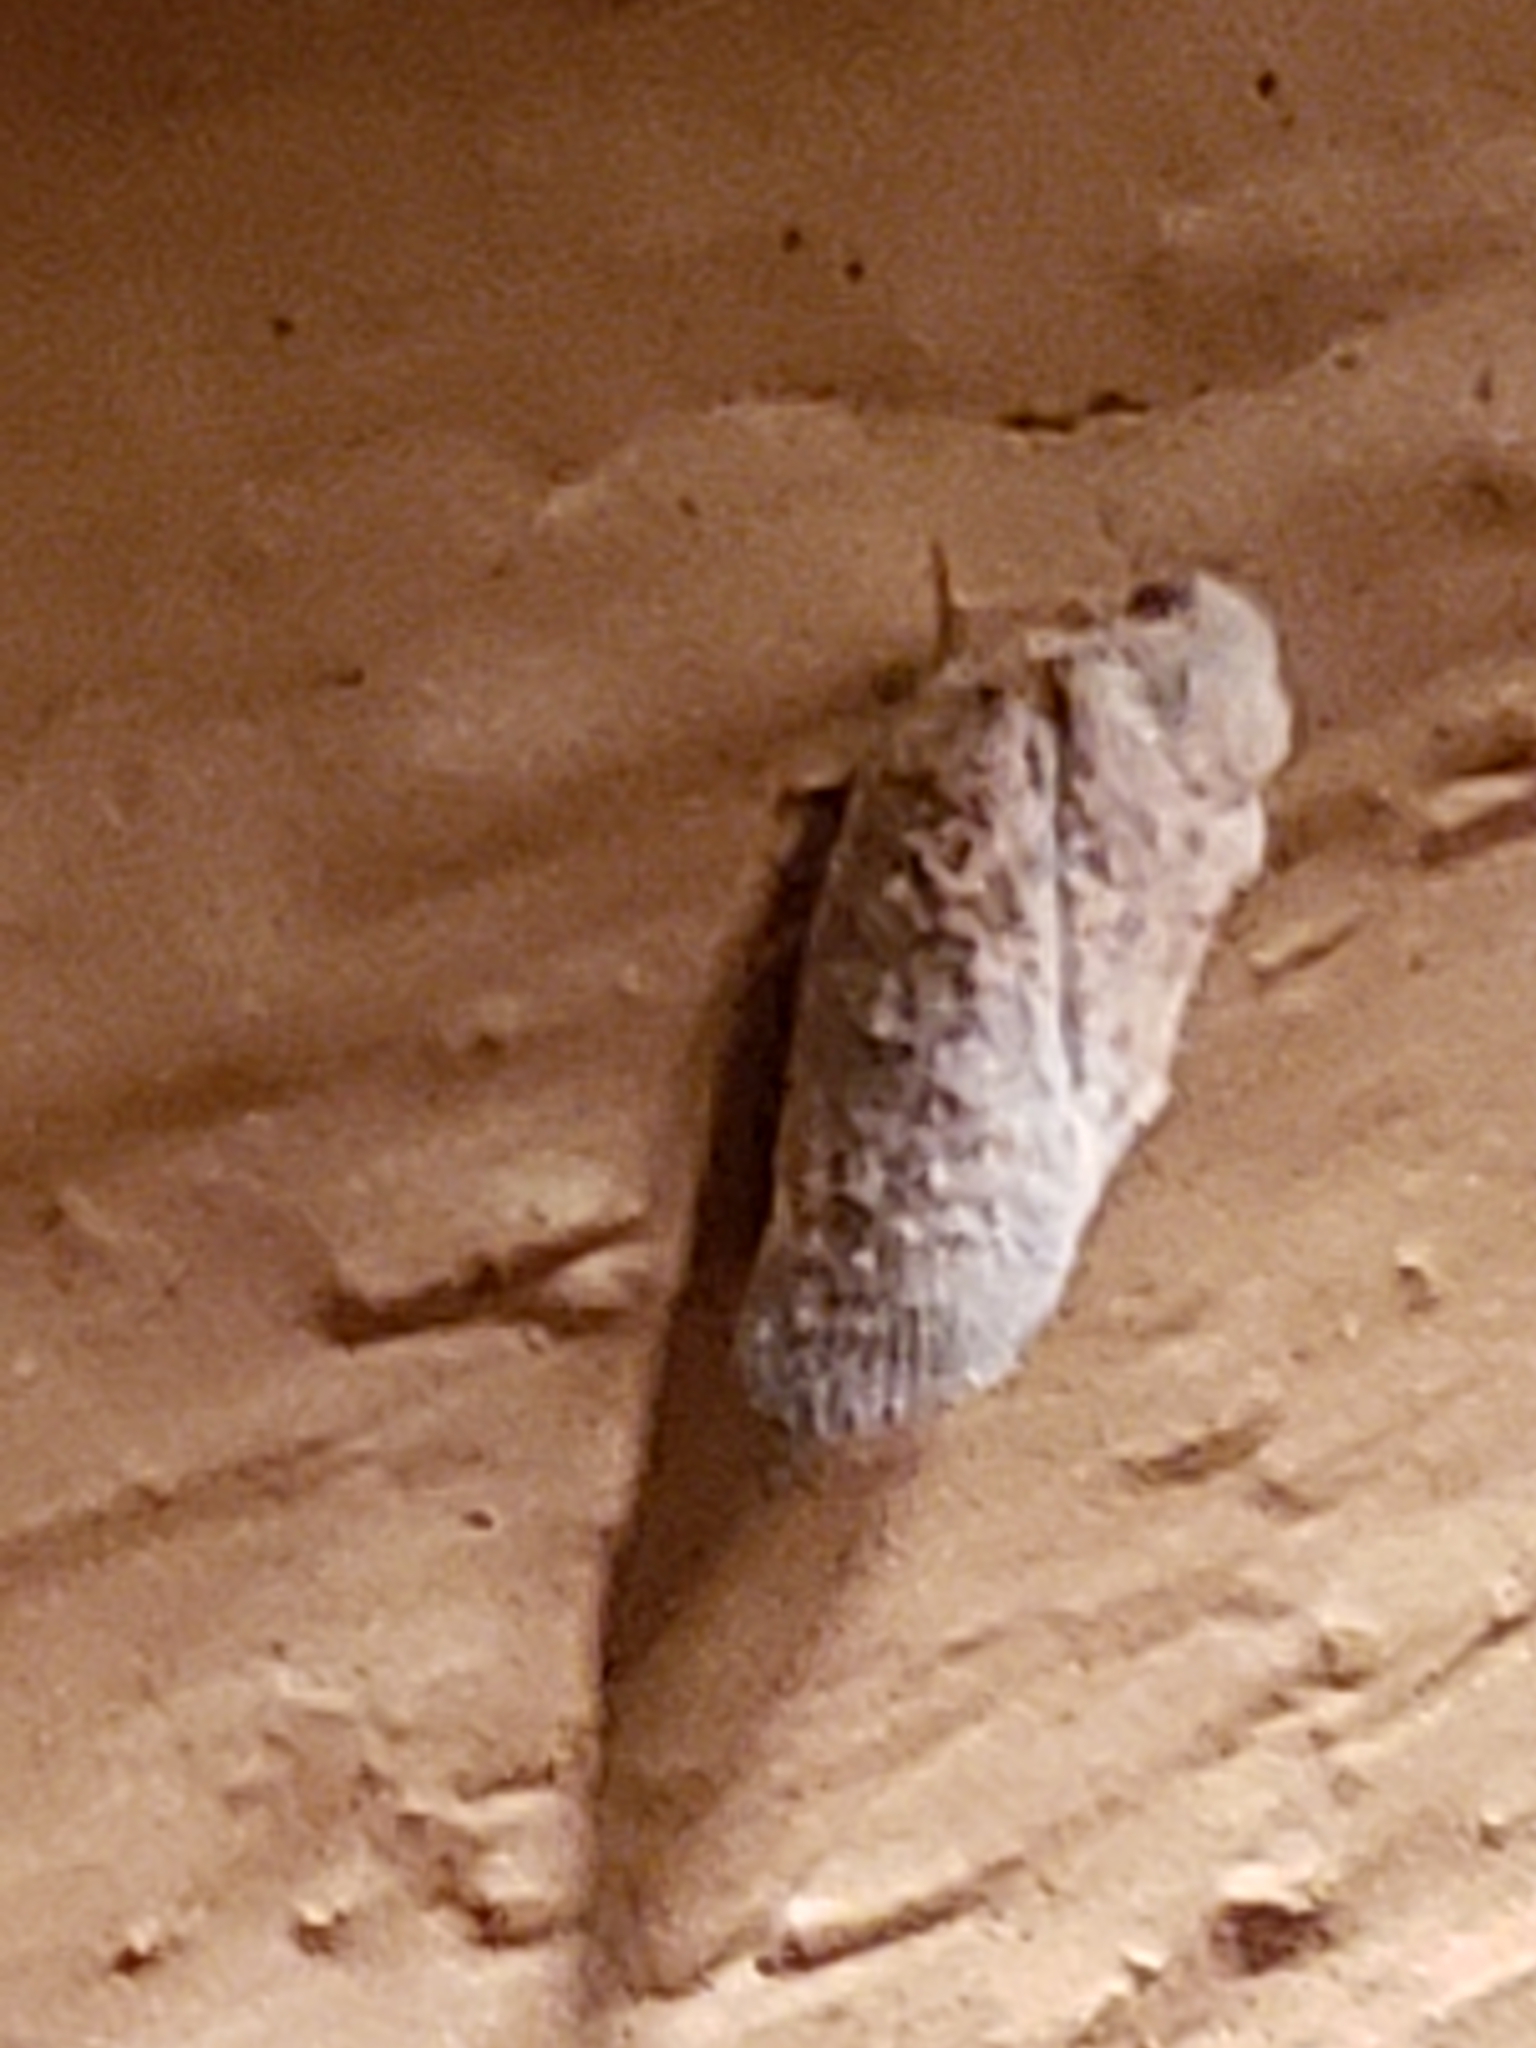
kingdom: Animalia
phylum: Arthropoda
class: Insecta
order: Hemiptera
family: Flatidae
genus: Metcalfa
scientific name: Metcalfa pruinosa
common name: Citrus flatid planthopper
